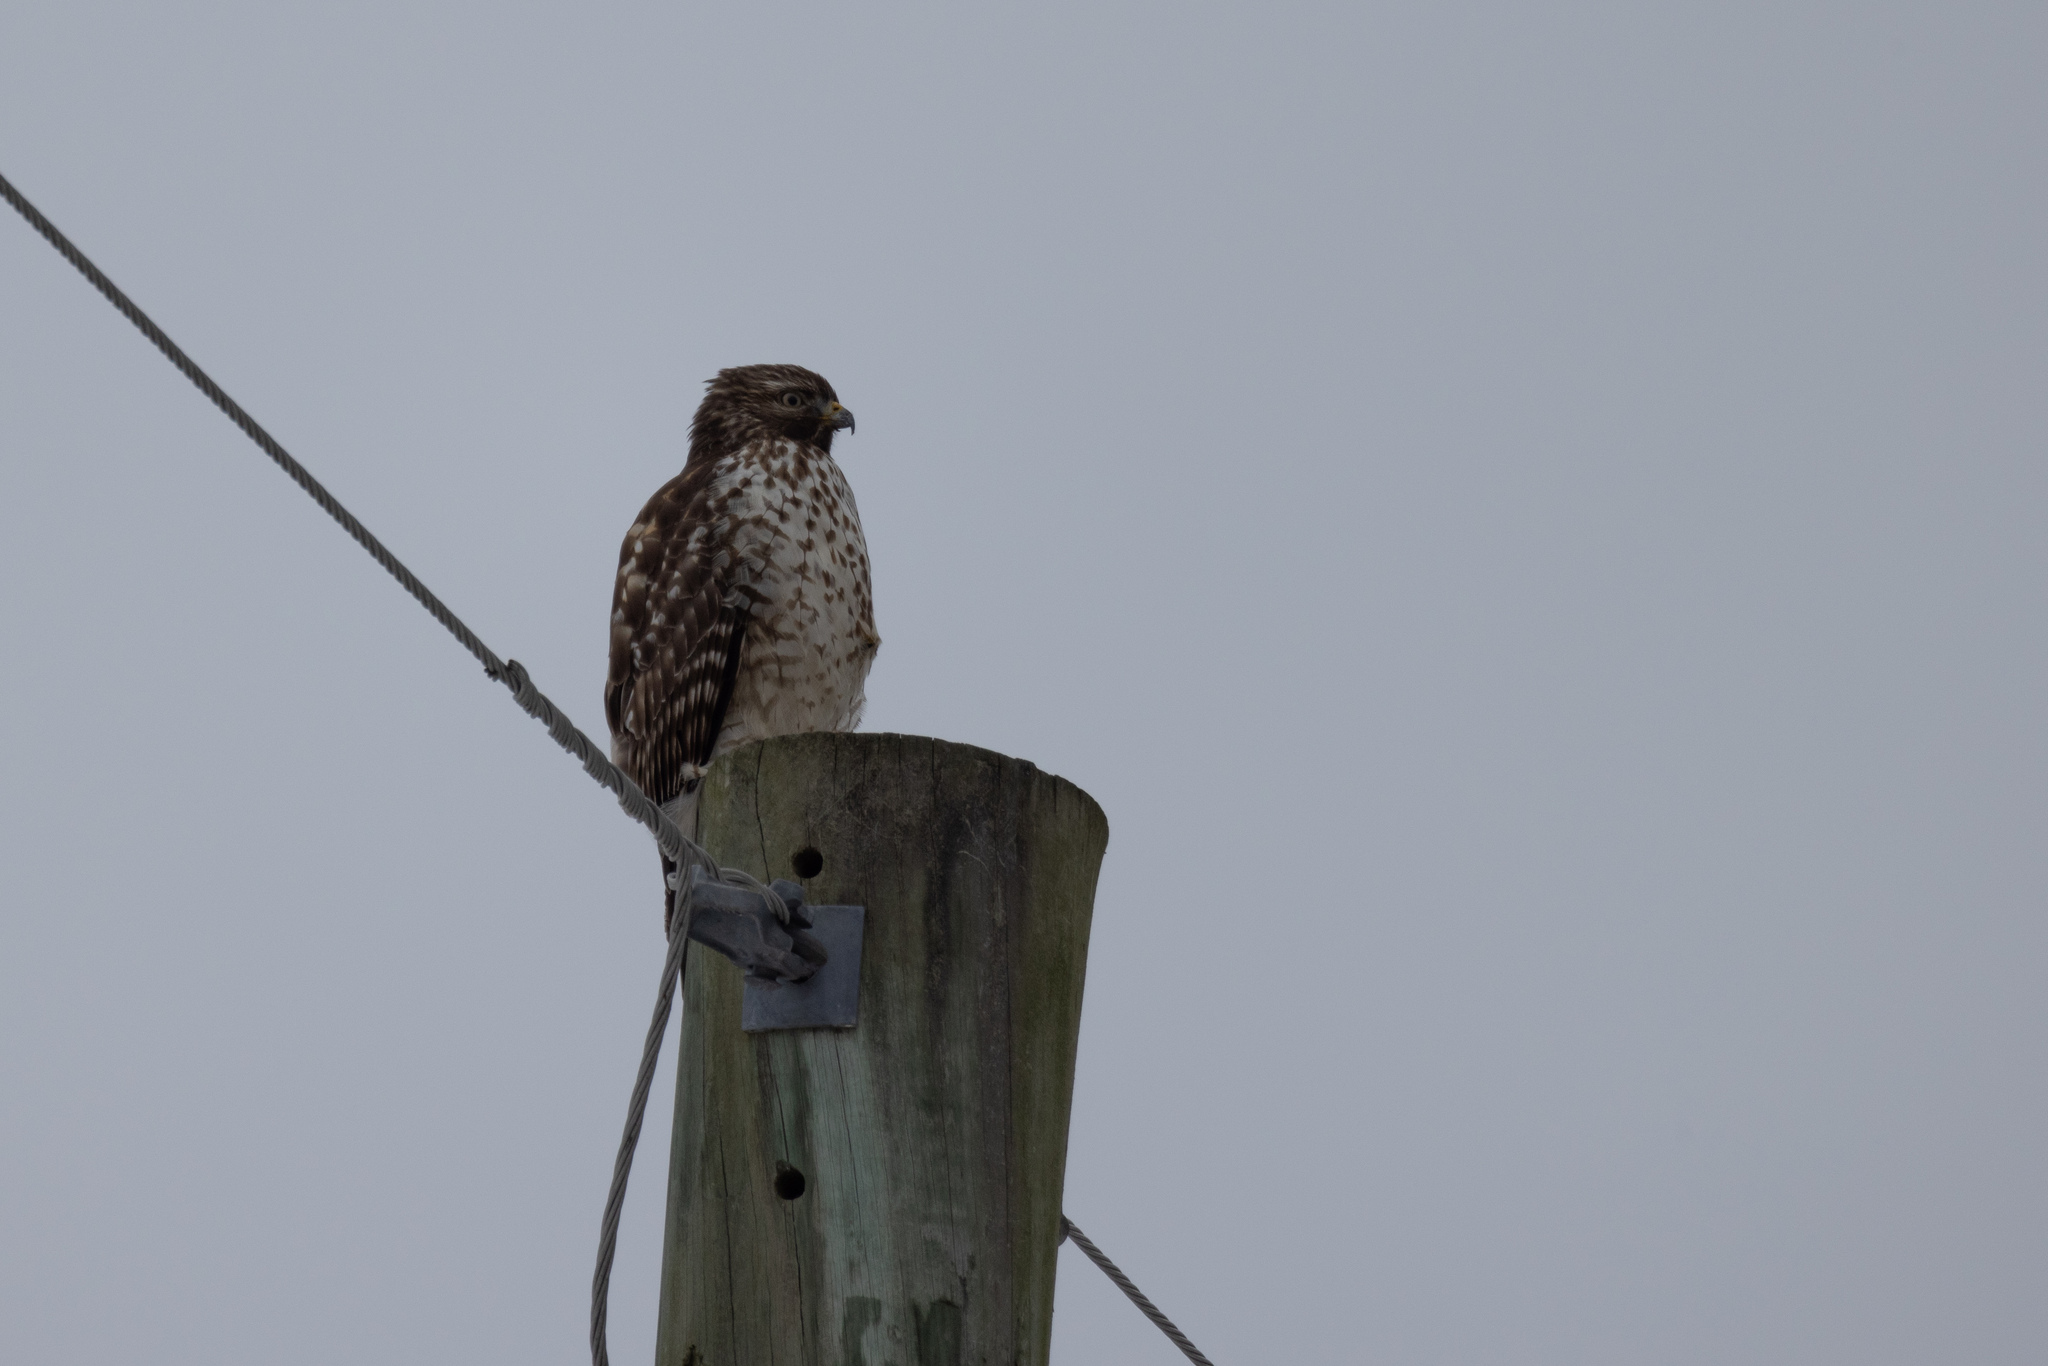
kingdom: Animalia
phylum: Chordata
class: Aves
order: Accipitriformes
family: Accipitridae
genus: Buteo
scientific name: Buteo lineatus
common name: Red-shouldered hawk
